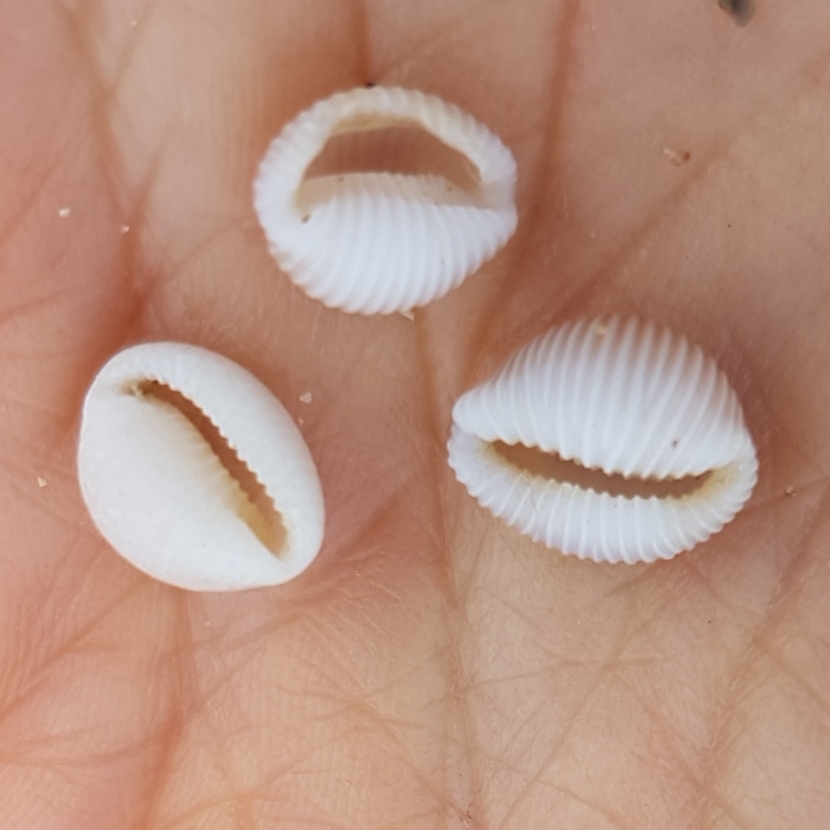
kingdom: Animalia
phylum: Mollusca
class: Gastropoda
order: Littorinimorpha
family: Triviidae
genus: Trivia
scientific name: Trivia arctica
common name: Arctic cowrie
